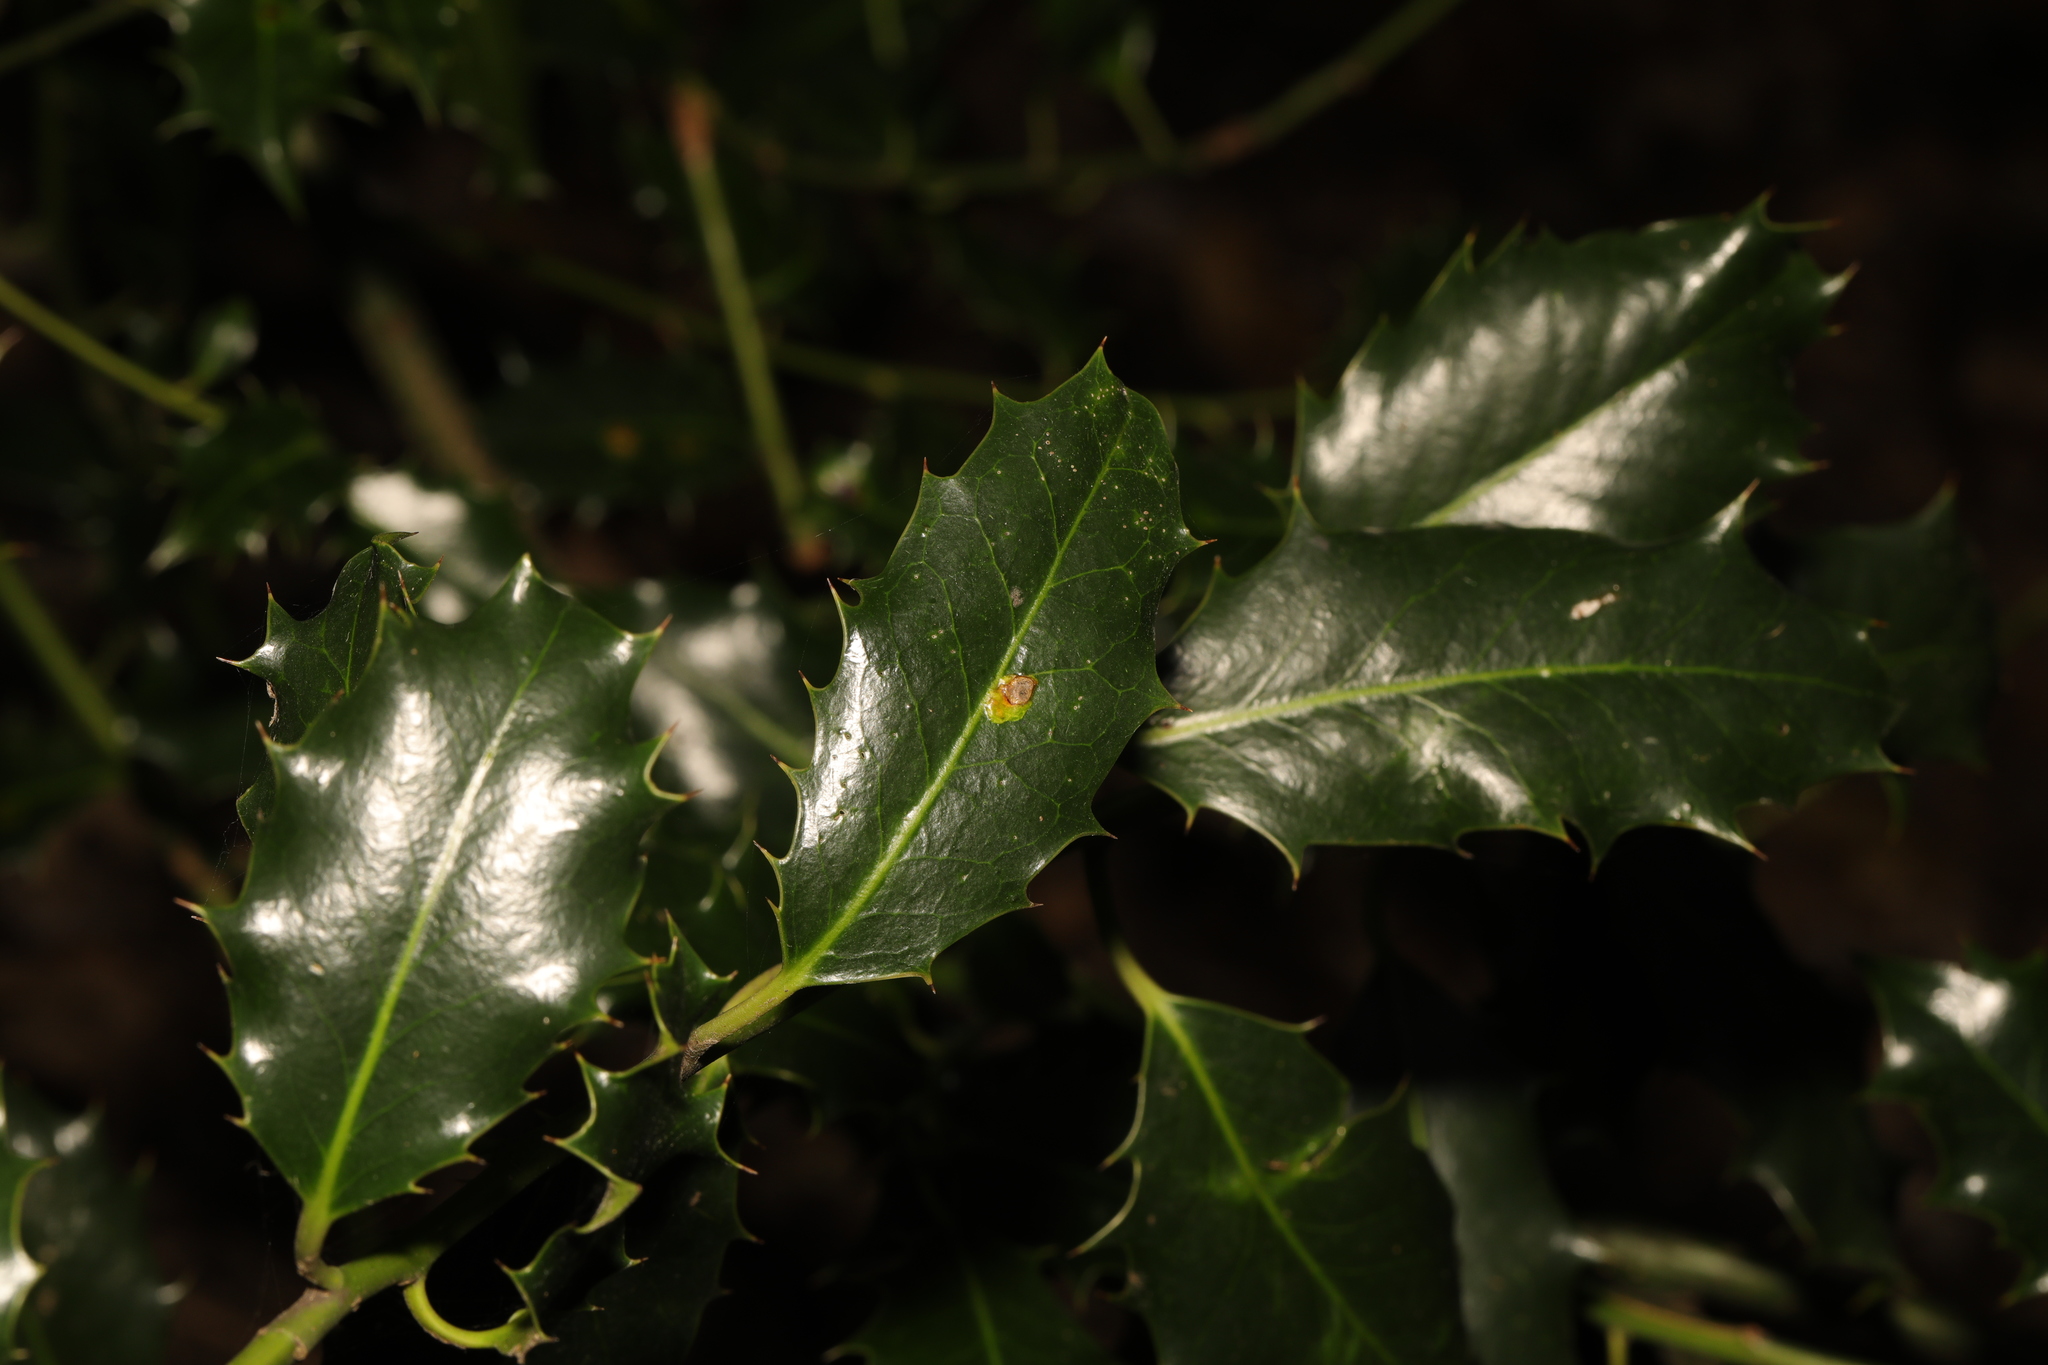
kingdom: Plantae
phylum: Tracheophyta
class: Magnoliopsida
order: Aquifoliales
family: Aquifoliaceae
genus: Ilex
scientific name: Ilex aquifolium
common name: English holly
